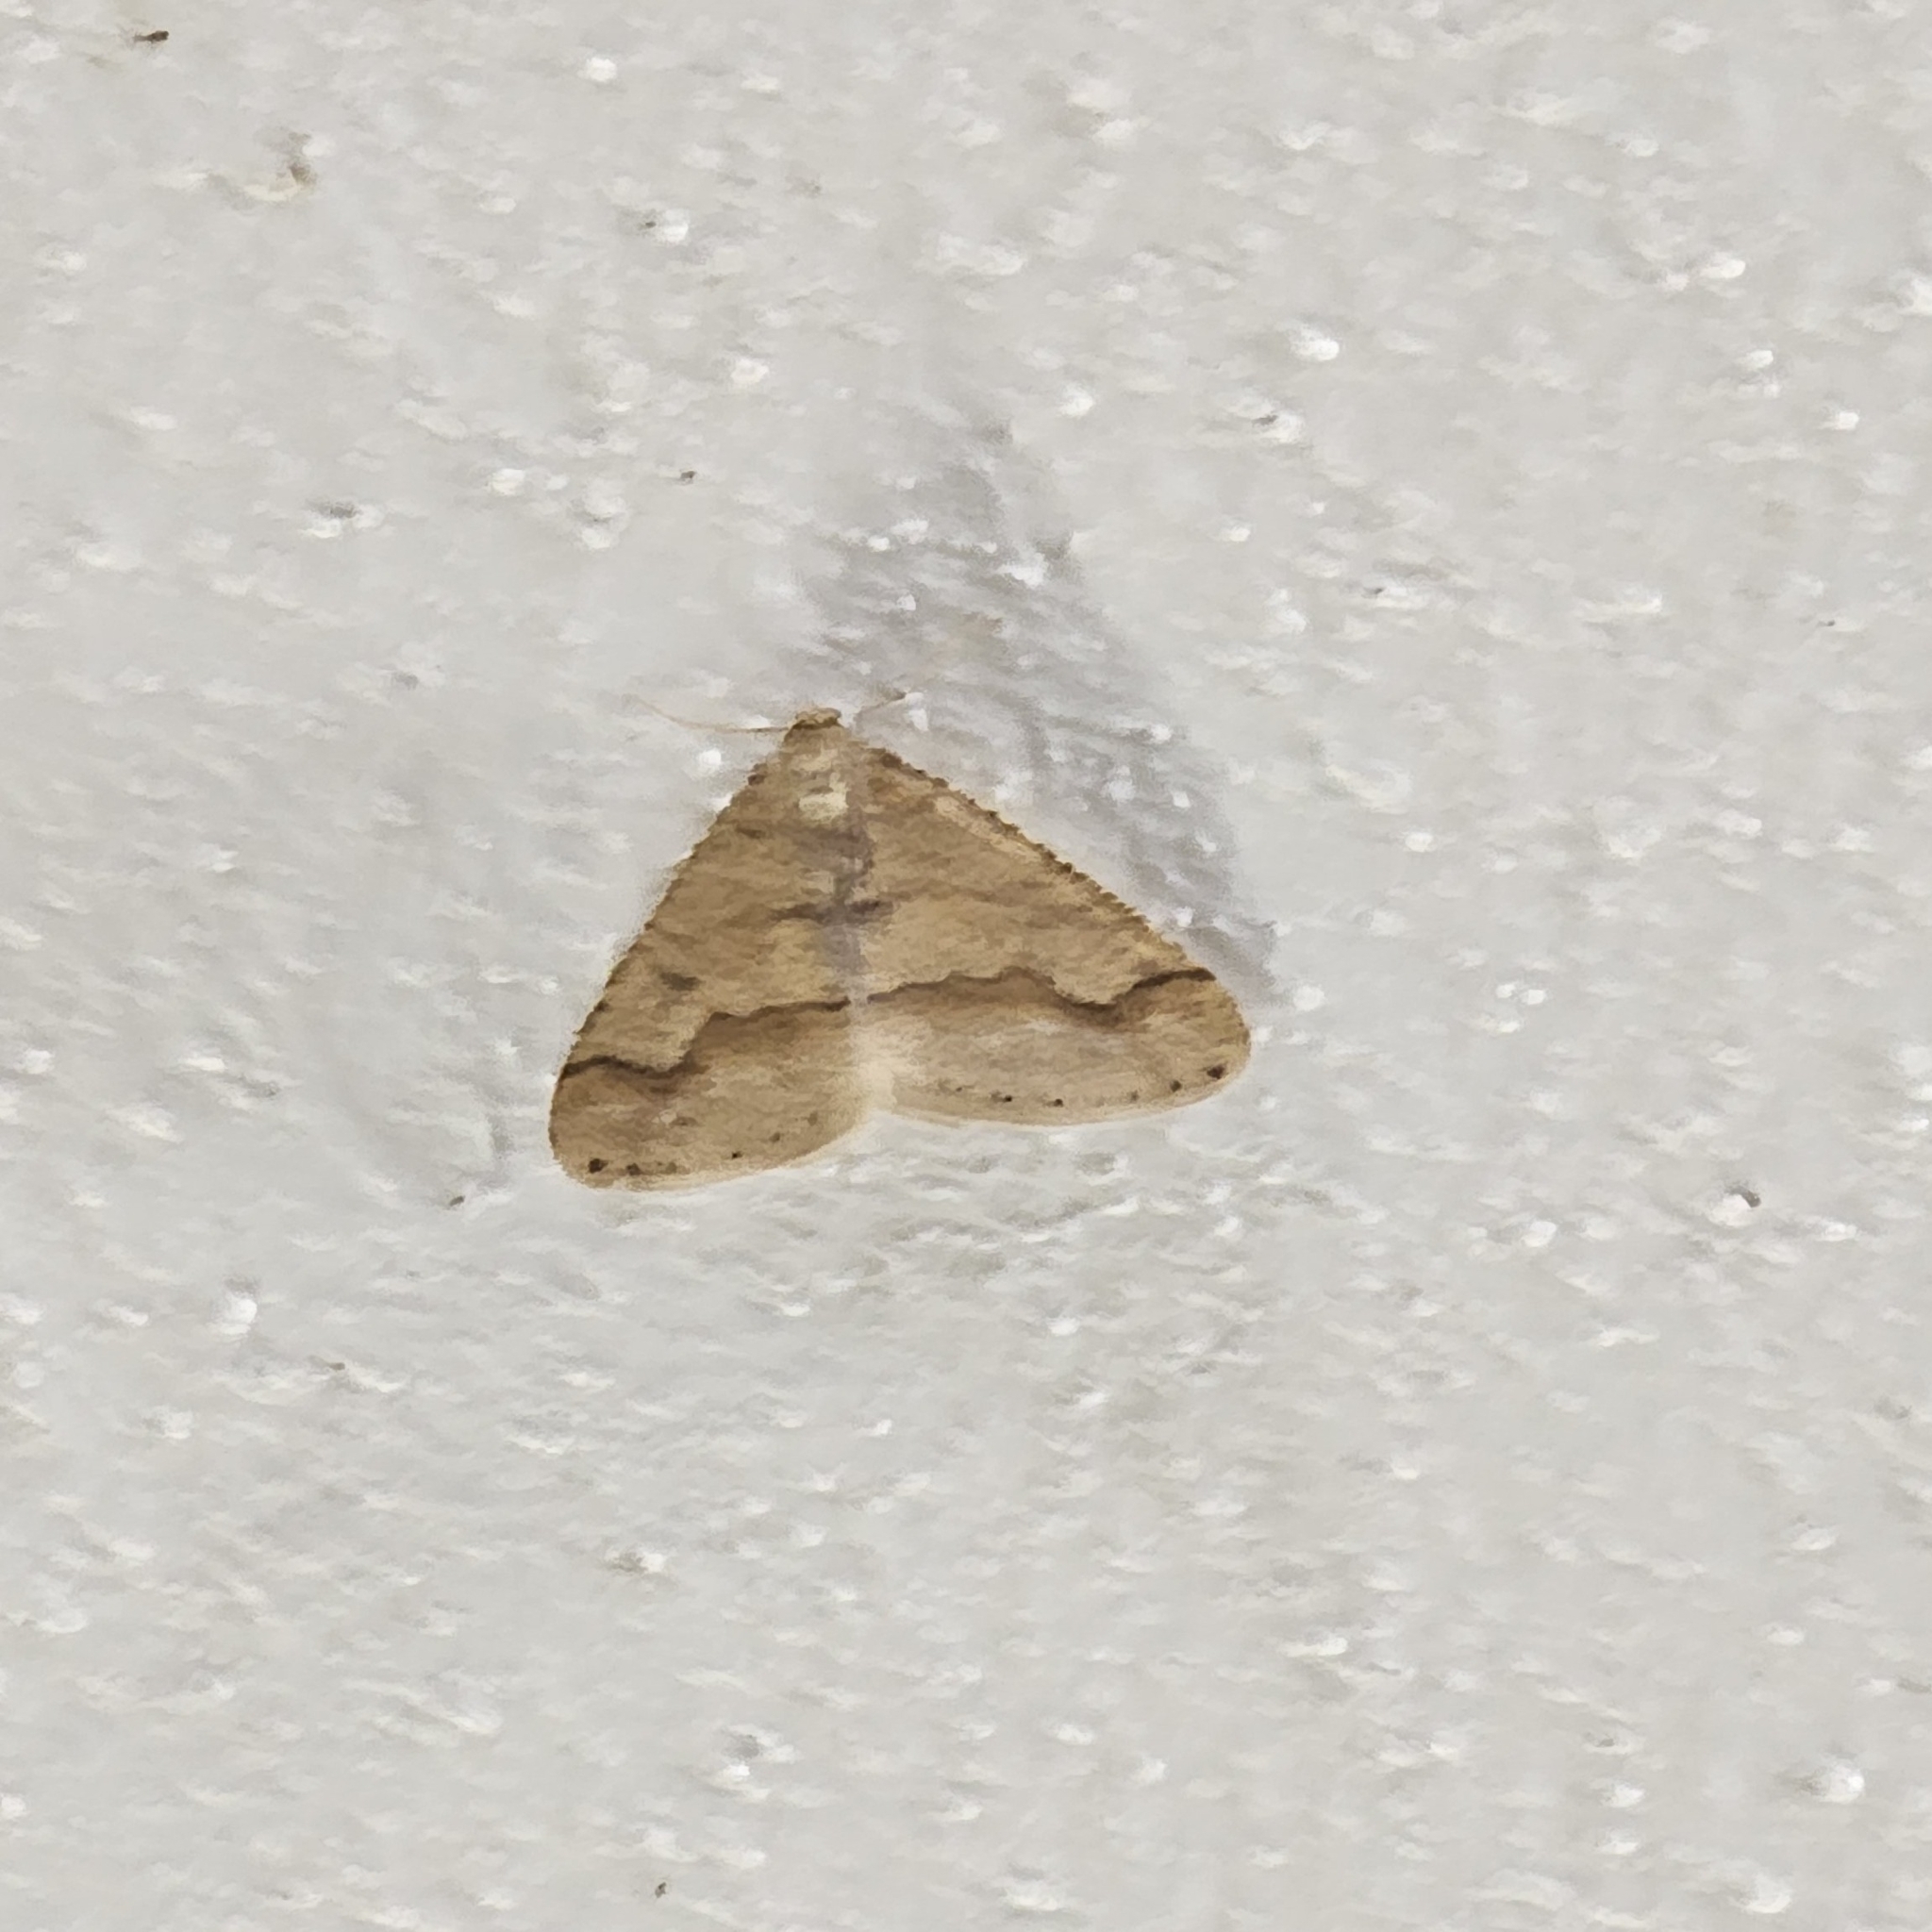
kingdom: Animalia
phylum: Arthropoda
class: Insecta
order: Lepidoptera
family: Geometridae
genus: Agriopis
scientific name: Agriopis marginaria
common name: Dotted border
